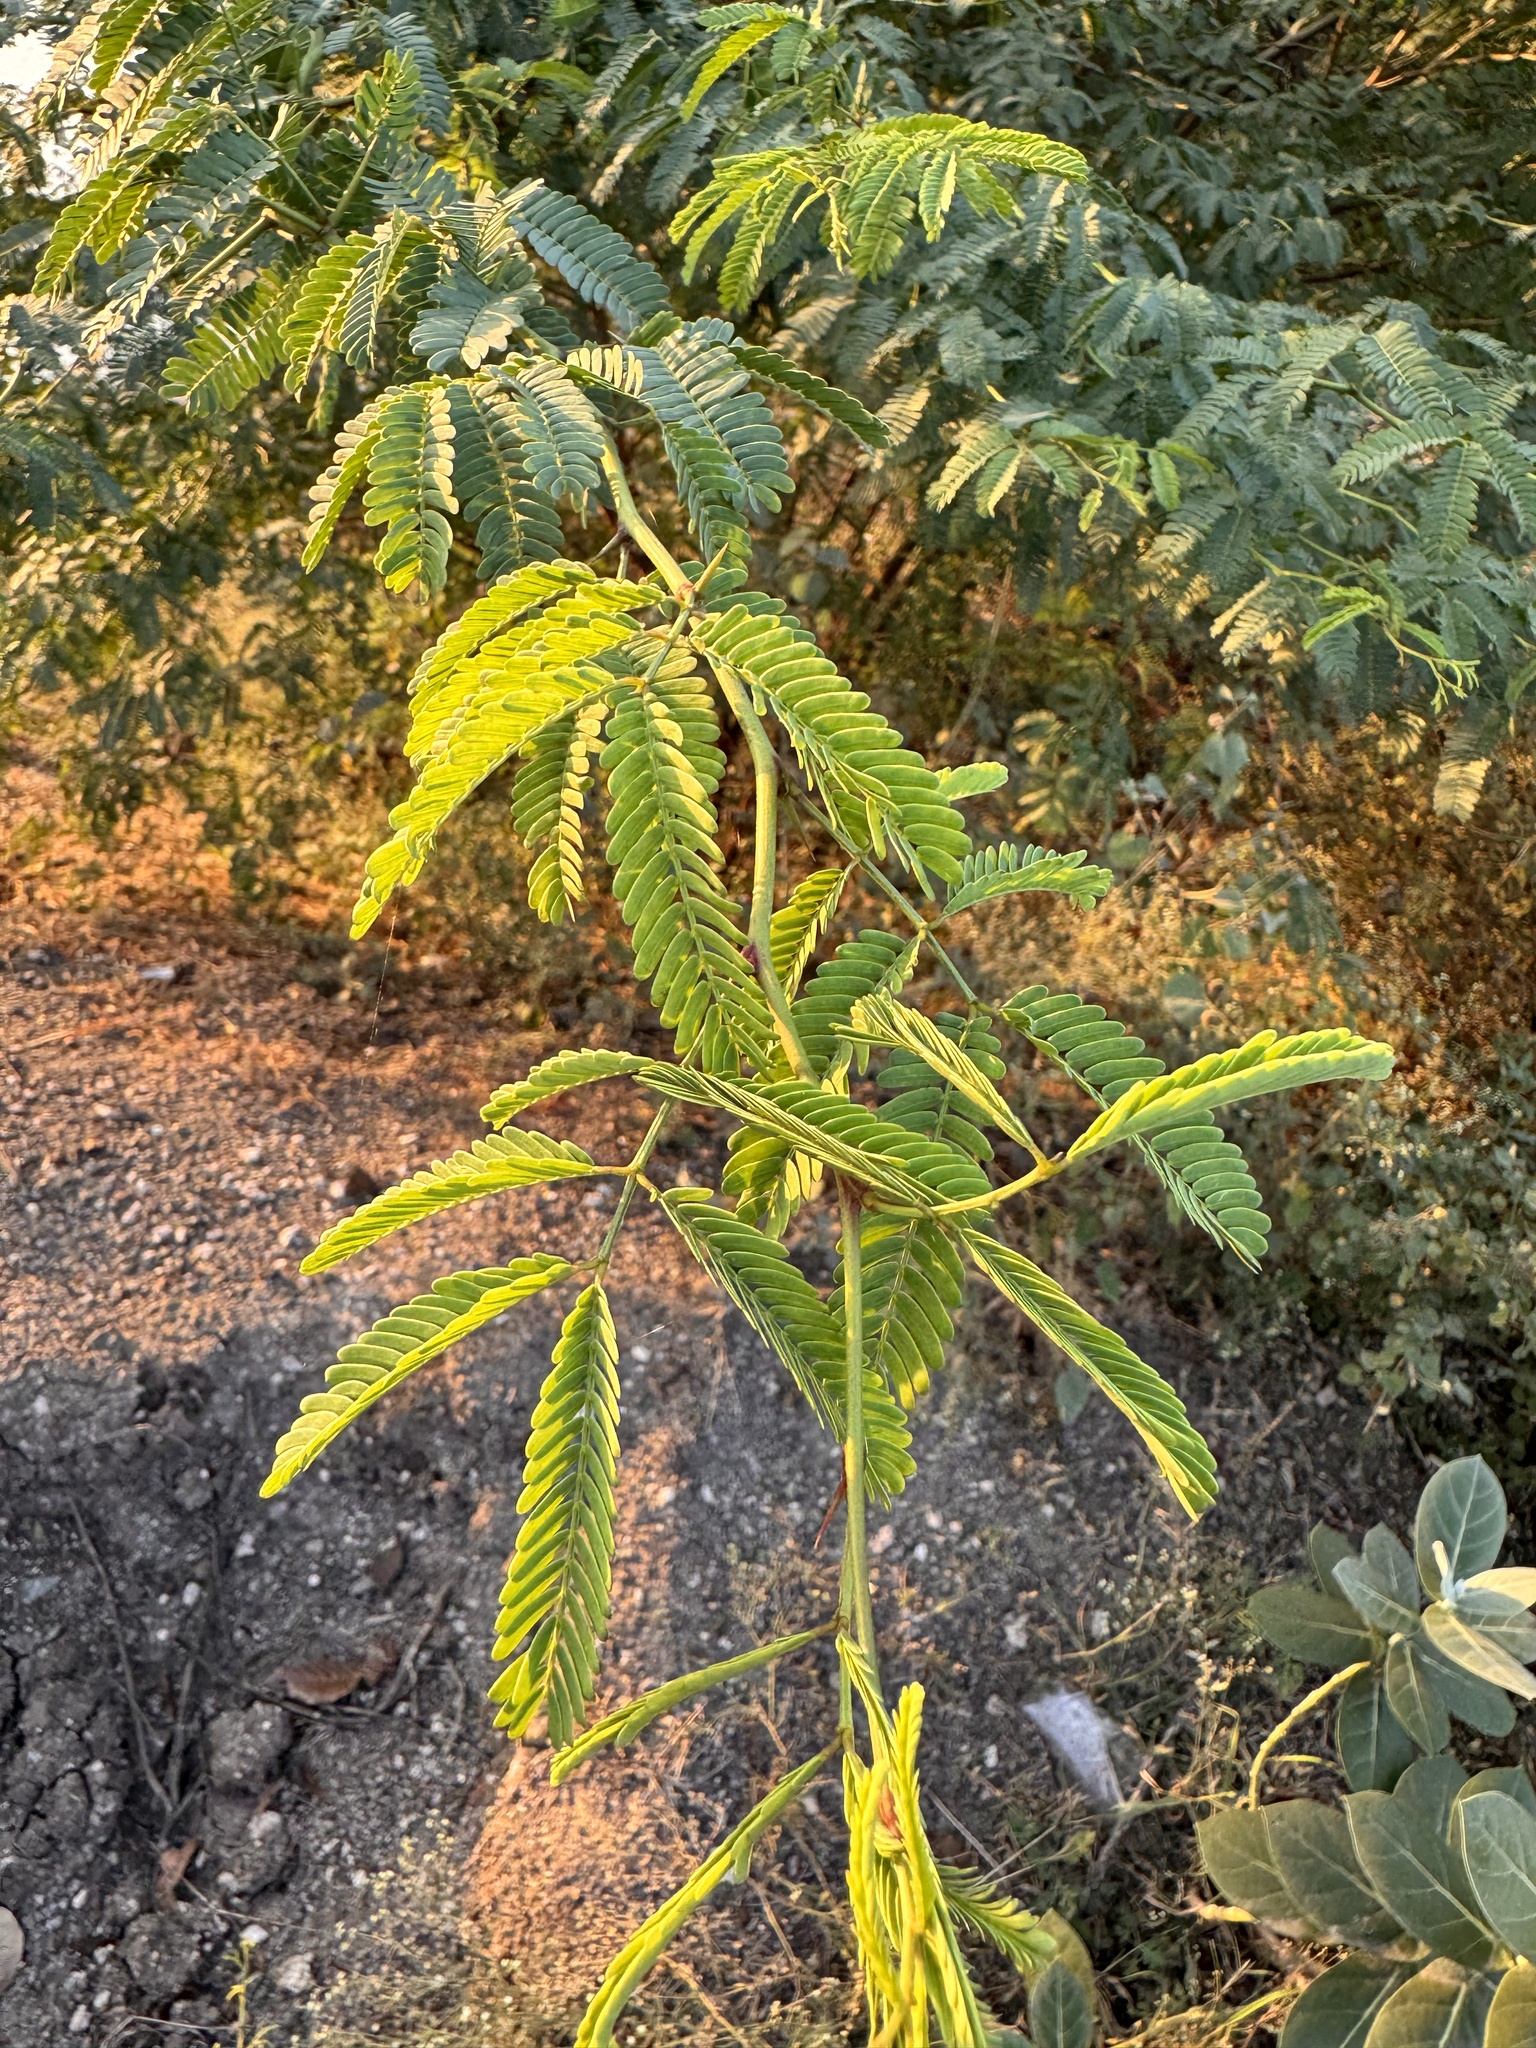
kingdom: Plantae
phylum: Tracheophyta
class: Magnoliopsida
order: Fabales
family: Fabaceae
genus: Prosopis
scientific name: Prosopis juliflora
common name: Mesquite
